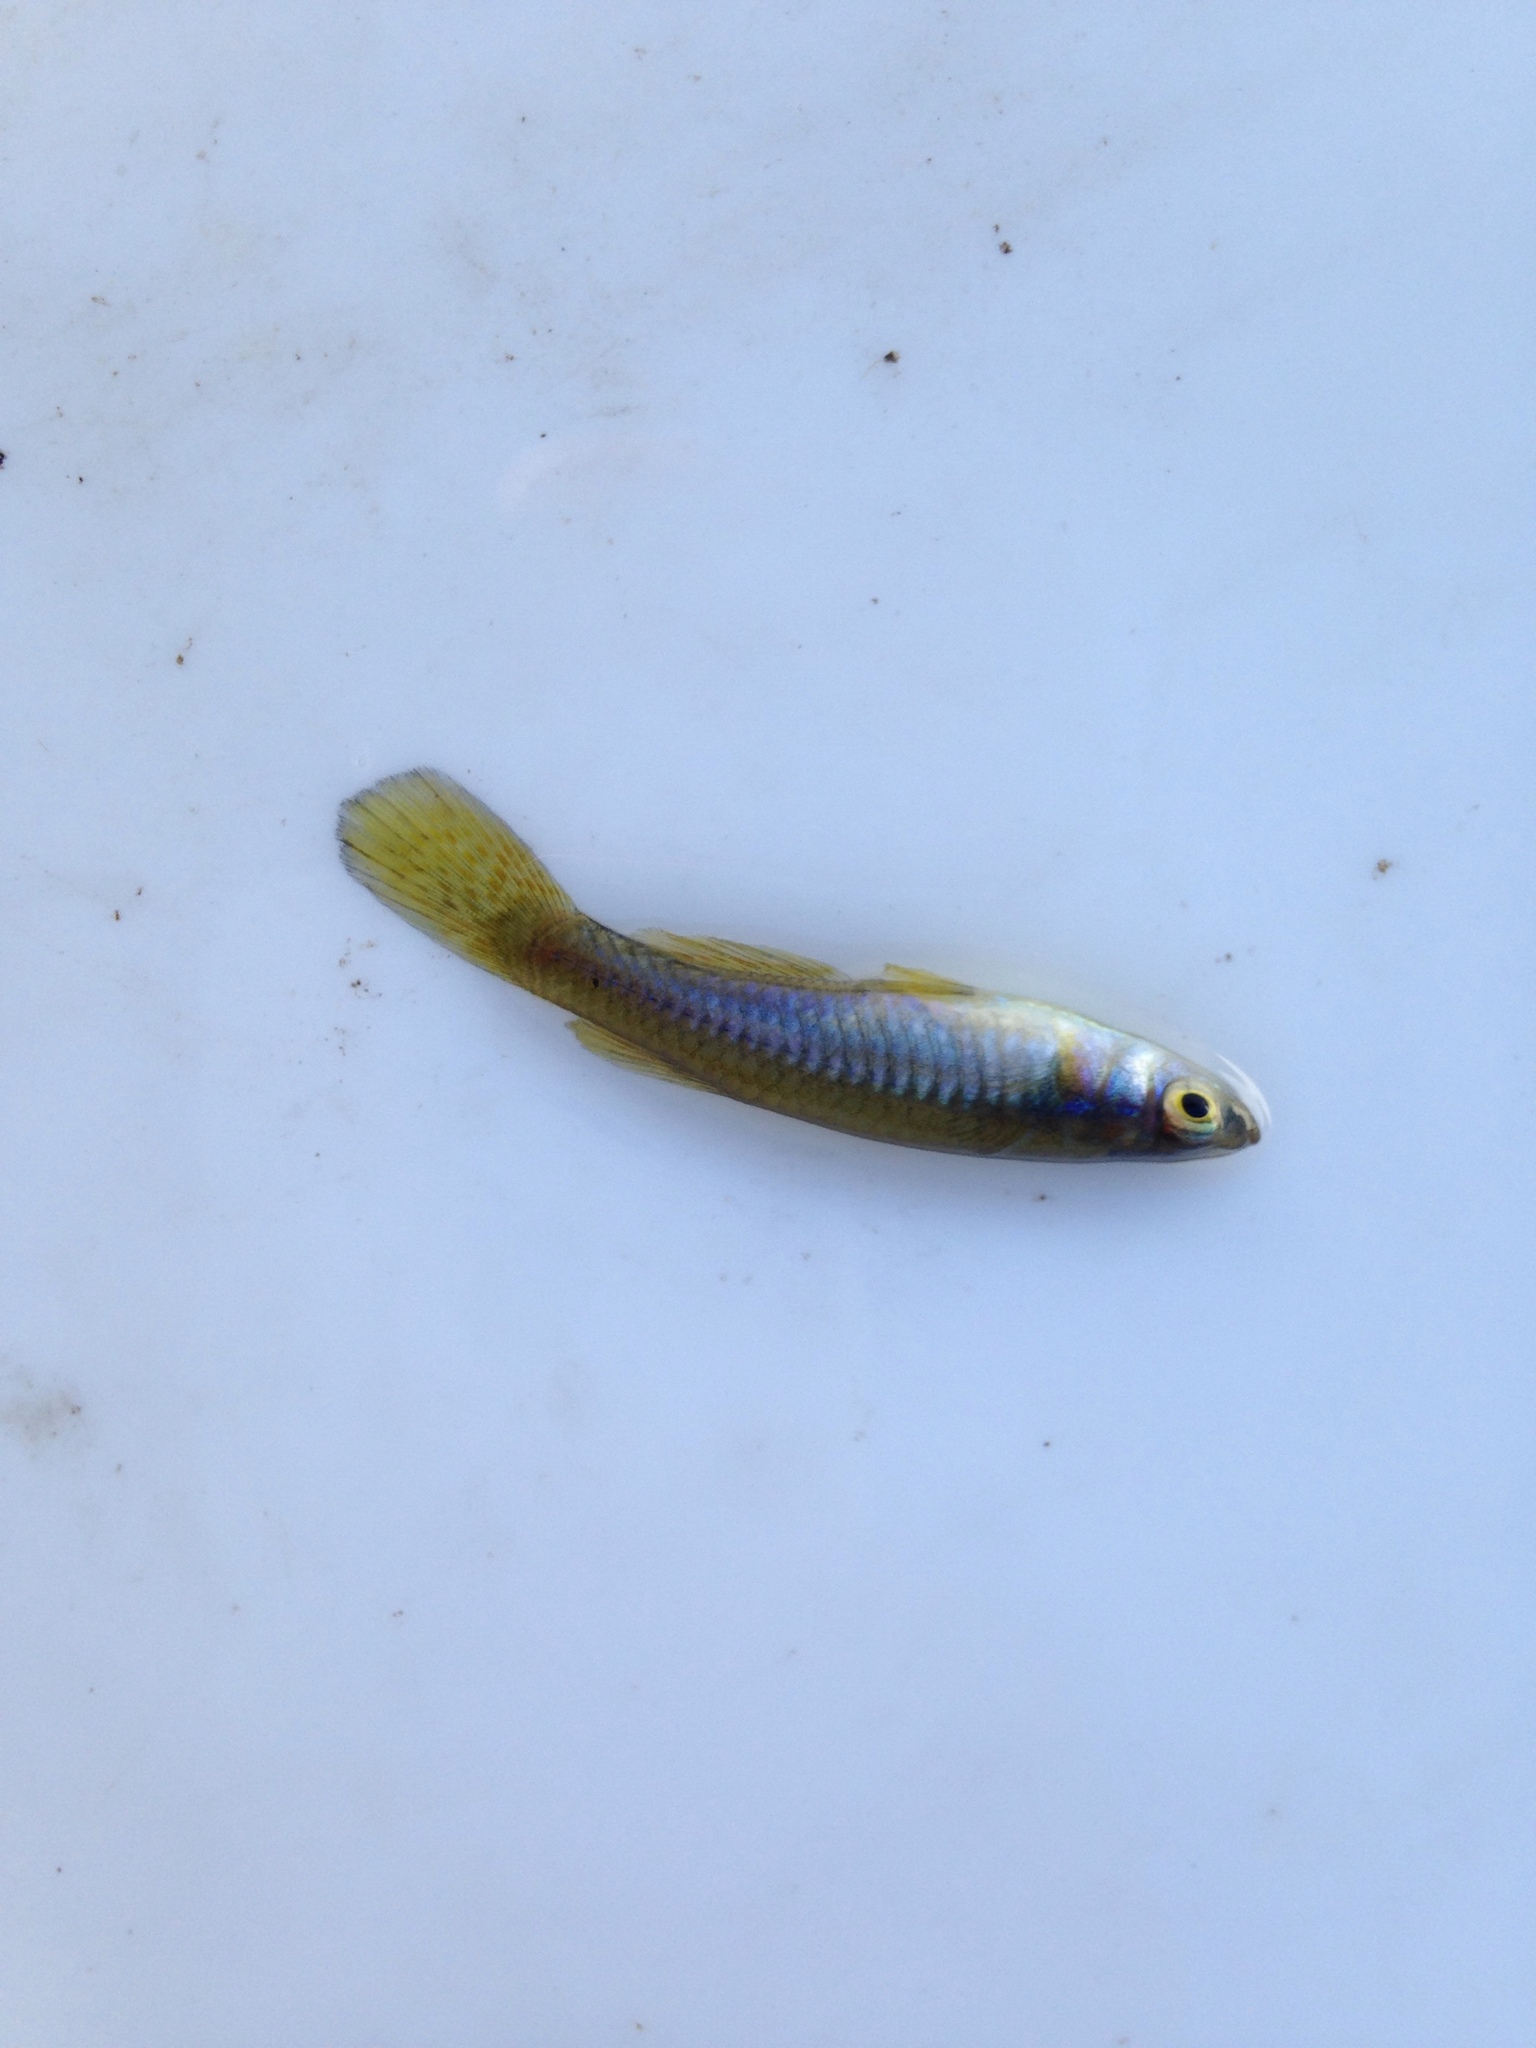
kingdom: Animalia
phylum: Chordata
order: Cyprinodontiformes
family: Poeciliidae
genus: Micropanchax
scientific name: Micropanchax johnstoni
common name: Johnston's topminnow
